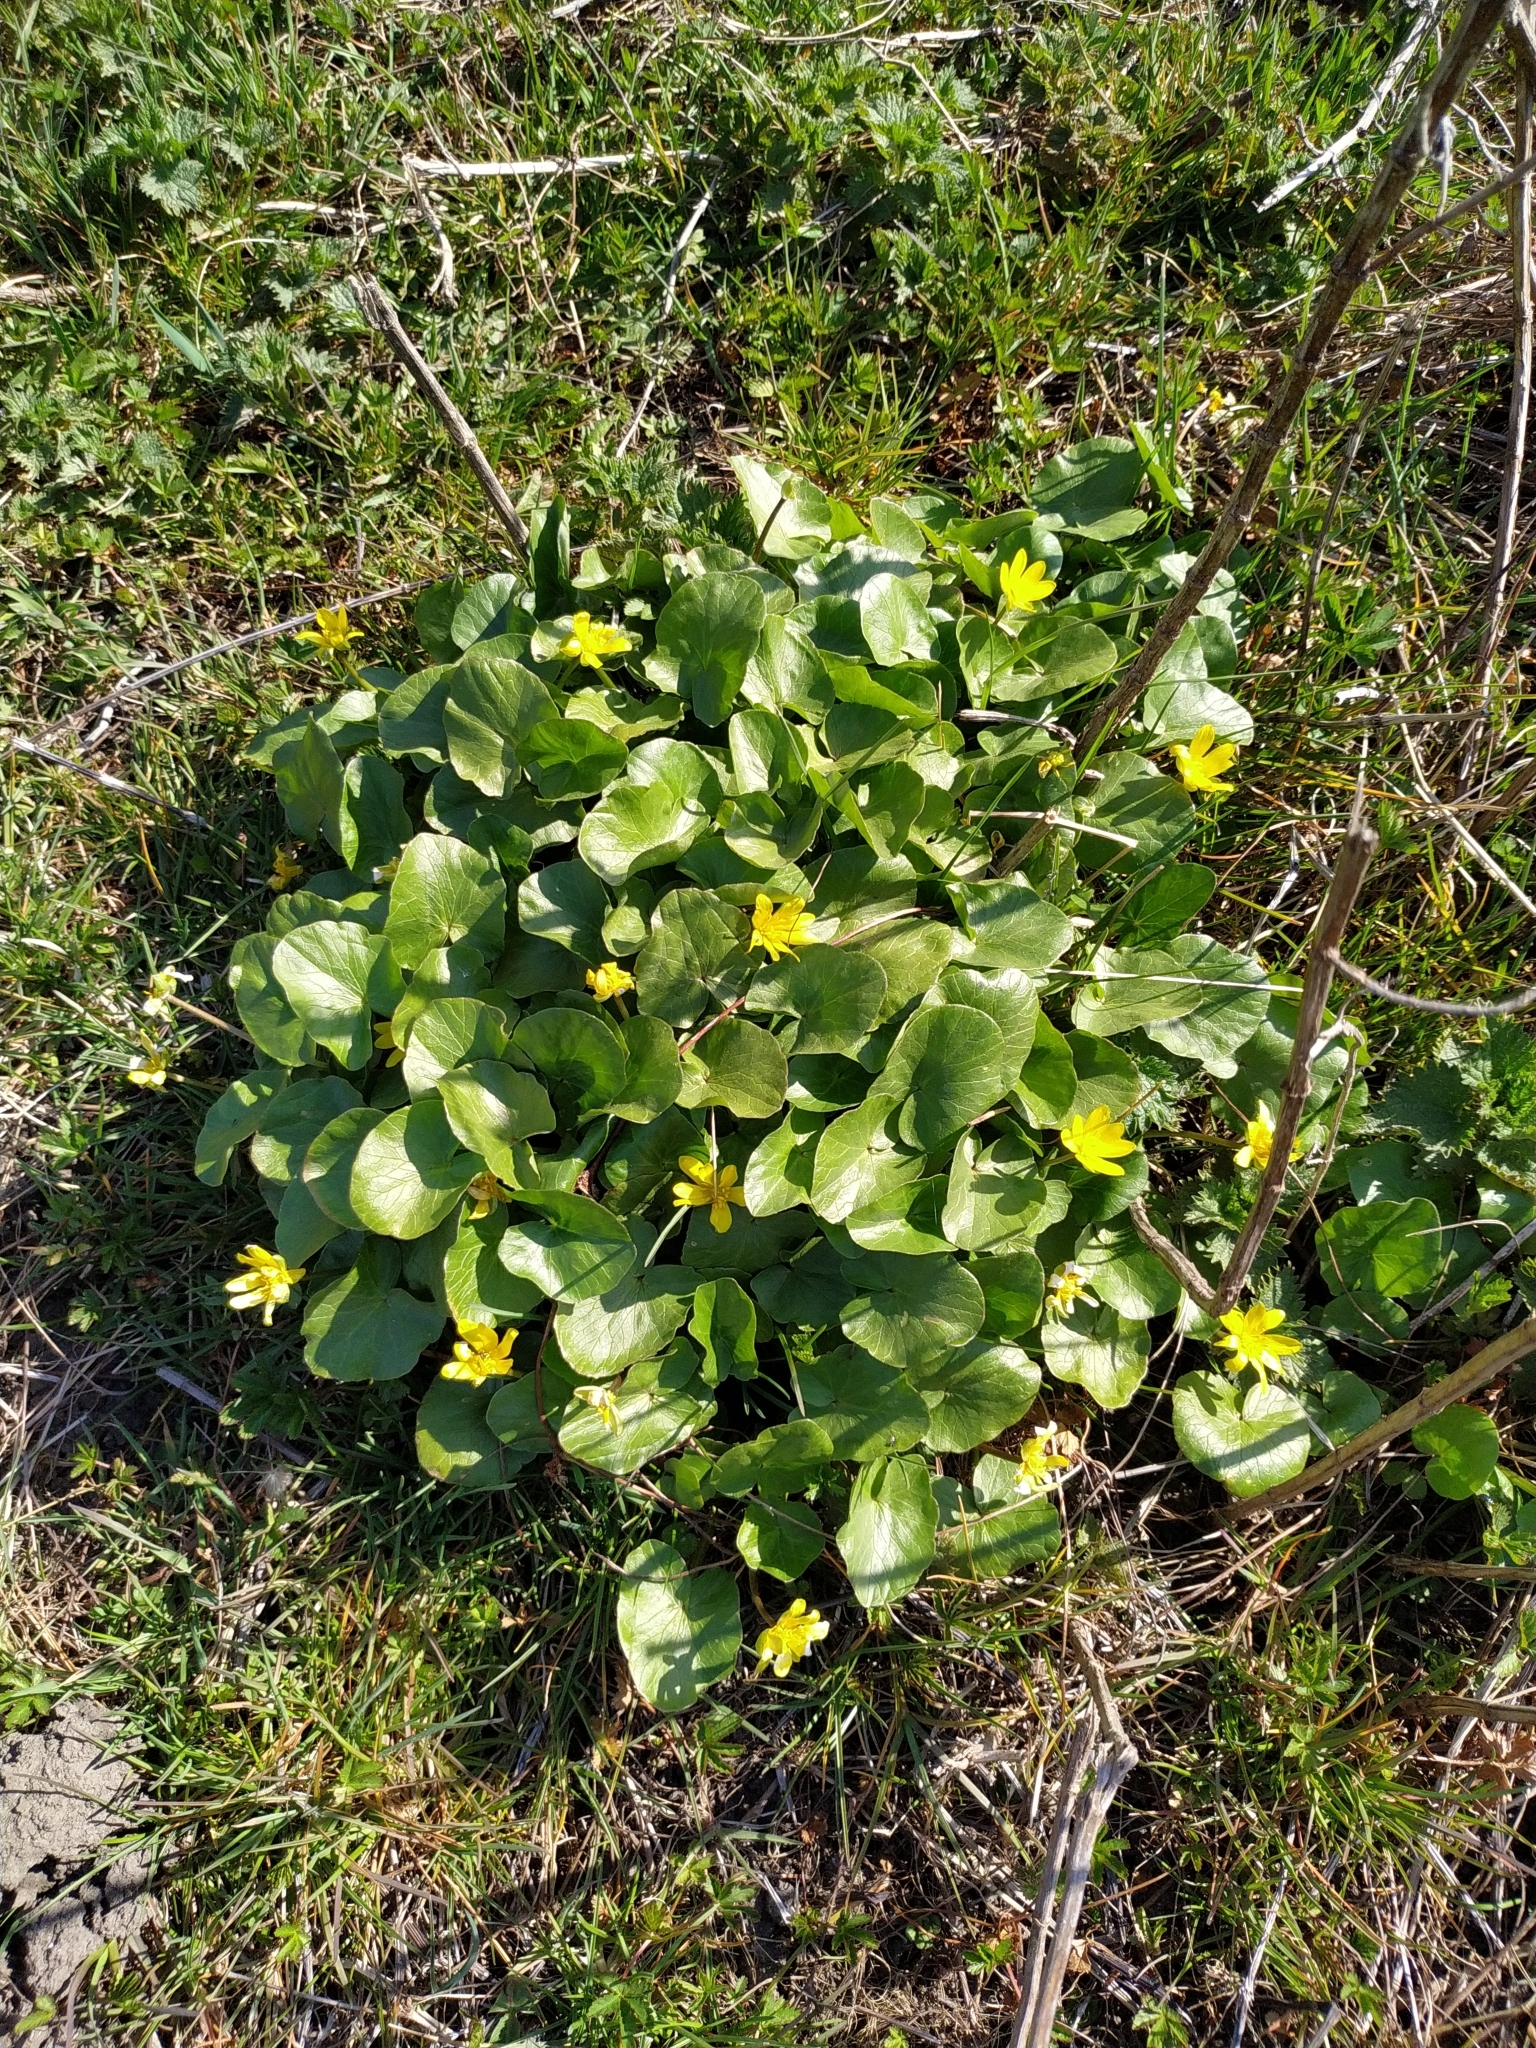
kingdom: Plantae
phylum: Tracheophyta
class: Magnoliopsida
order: Ranunculales
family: Ranunculaceae
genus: Ficaria
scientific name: Ficaria verna
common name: Lesser celandine
